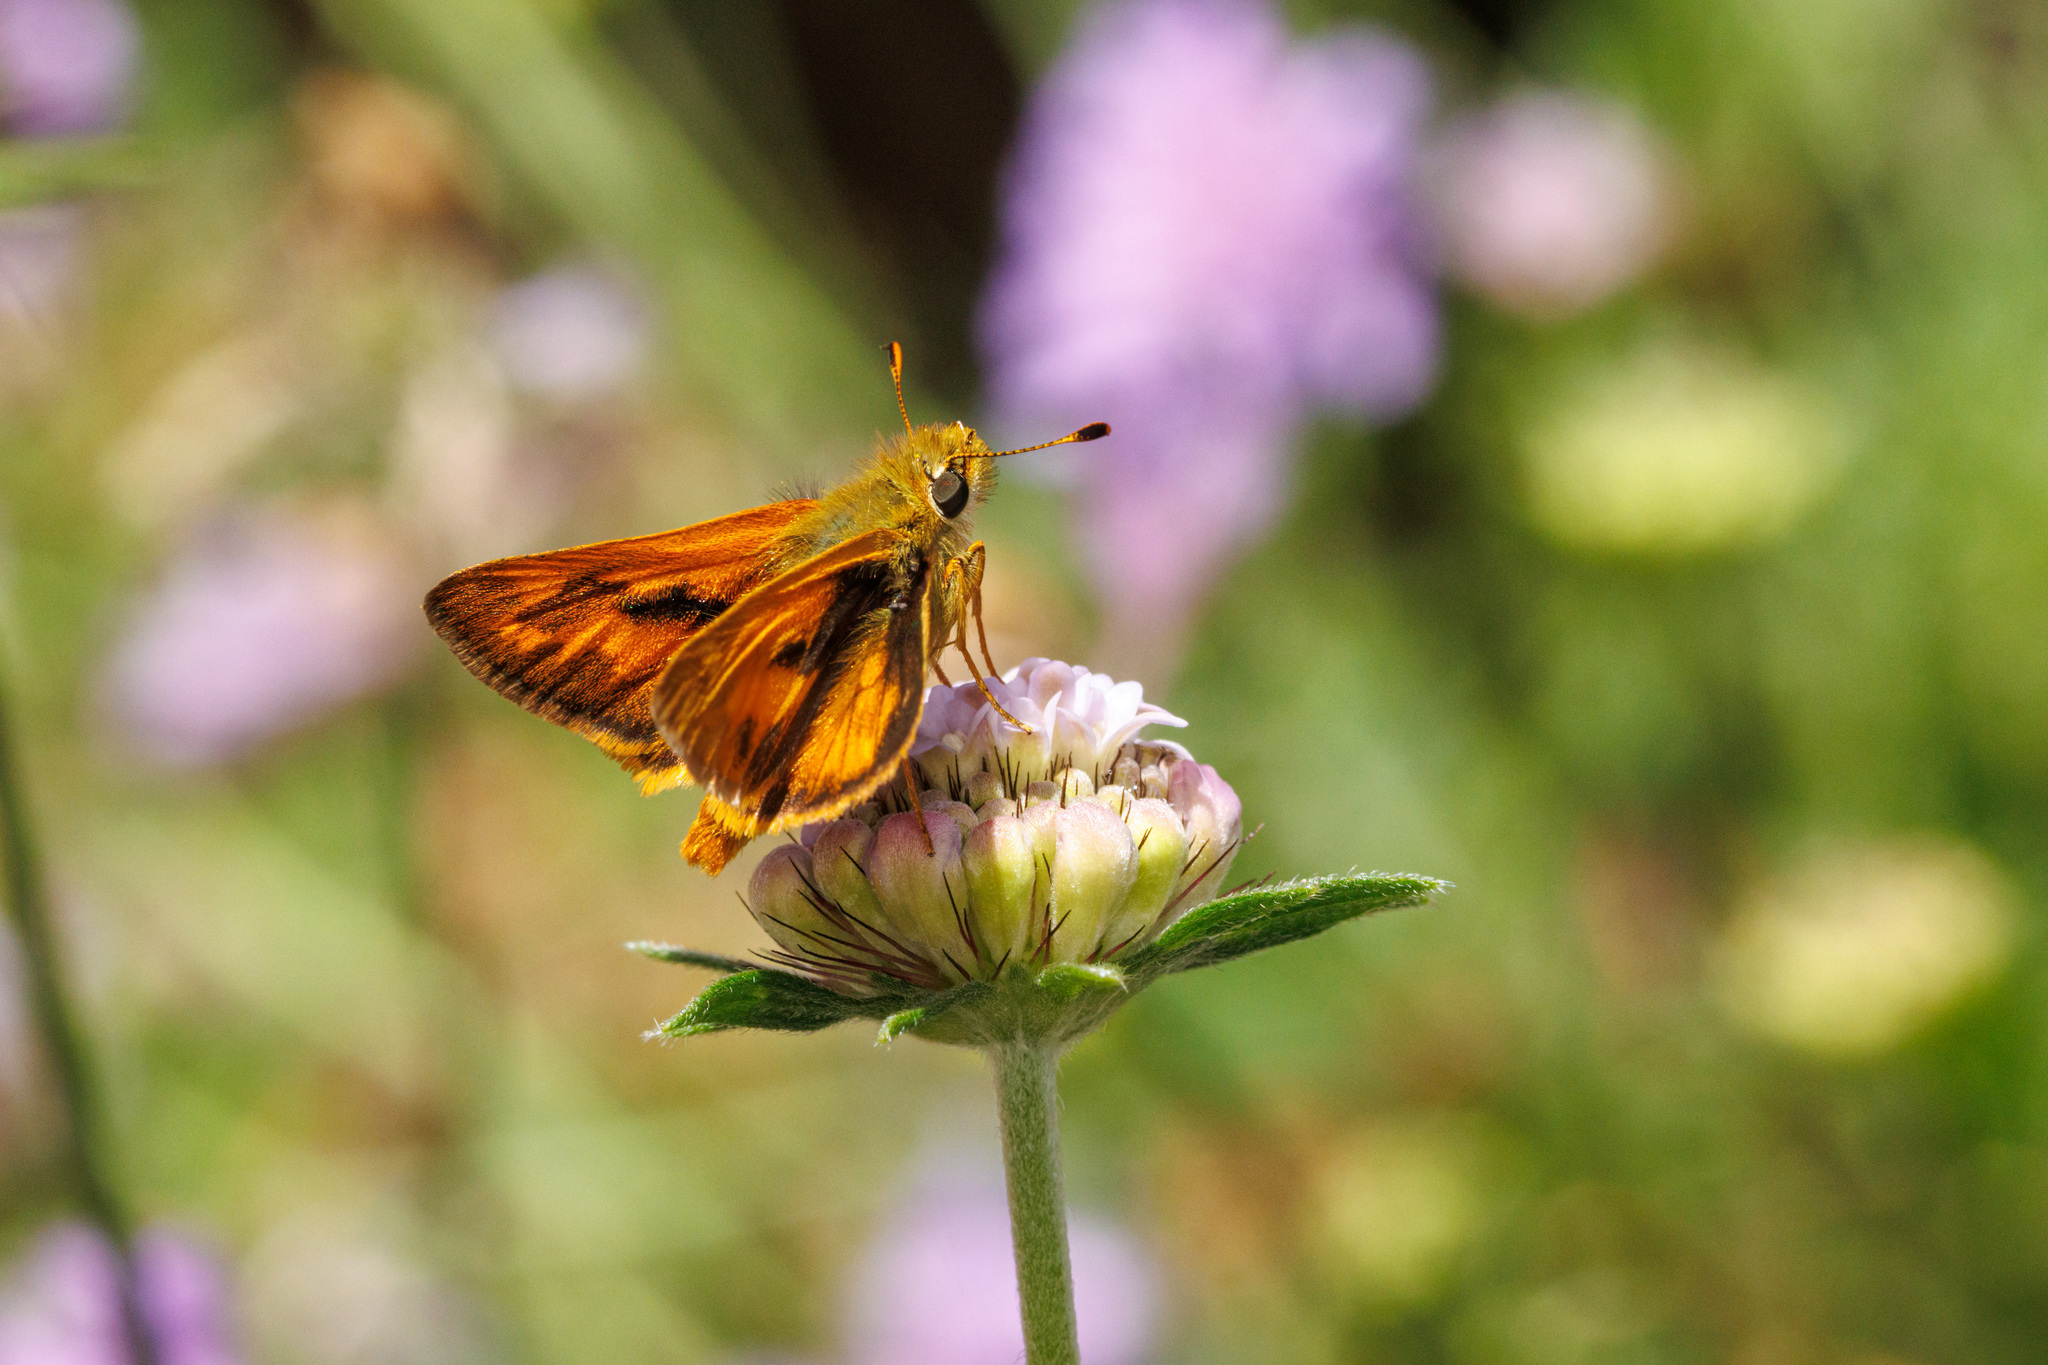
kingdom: Animalia
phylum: Arthropoda
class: Insecta
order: Lepidoptera
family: Hesperiidae
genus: Ochlodes
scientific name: Ochlodes sylvanoides
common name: Woodland skipper
